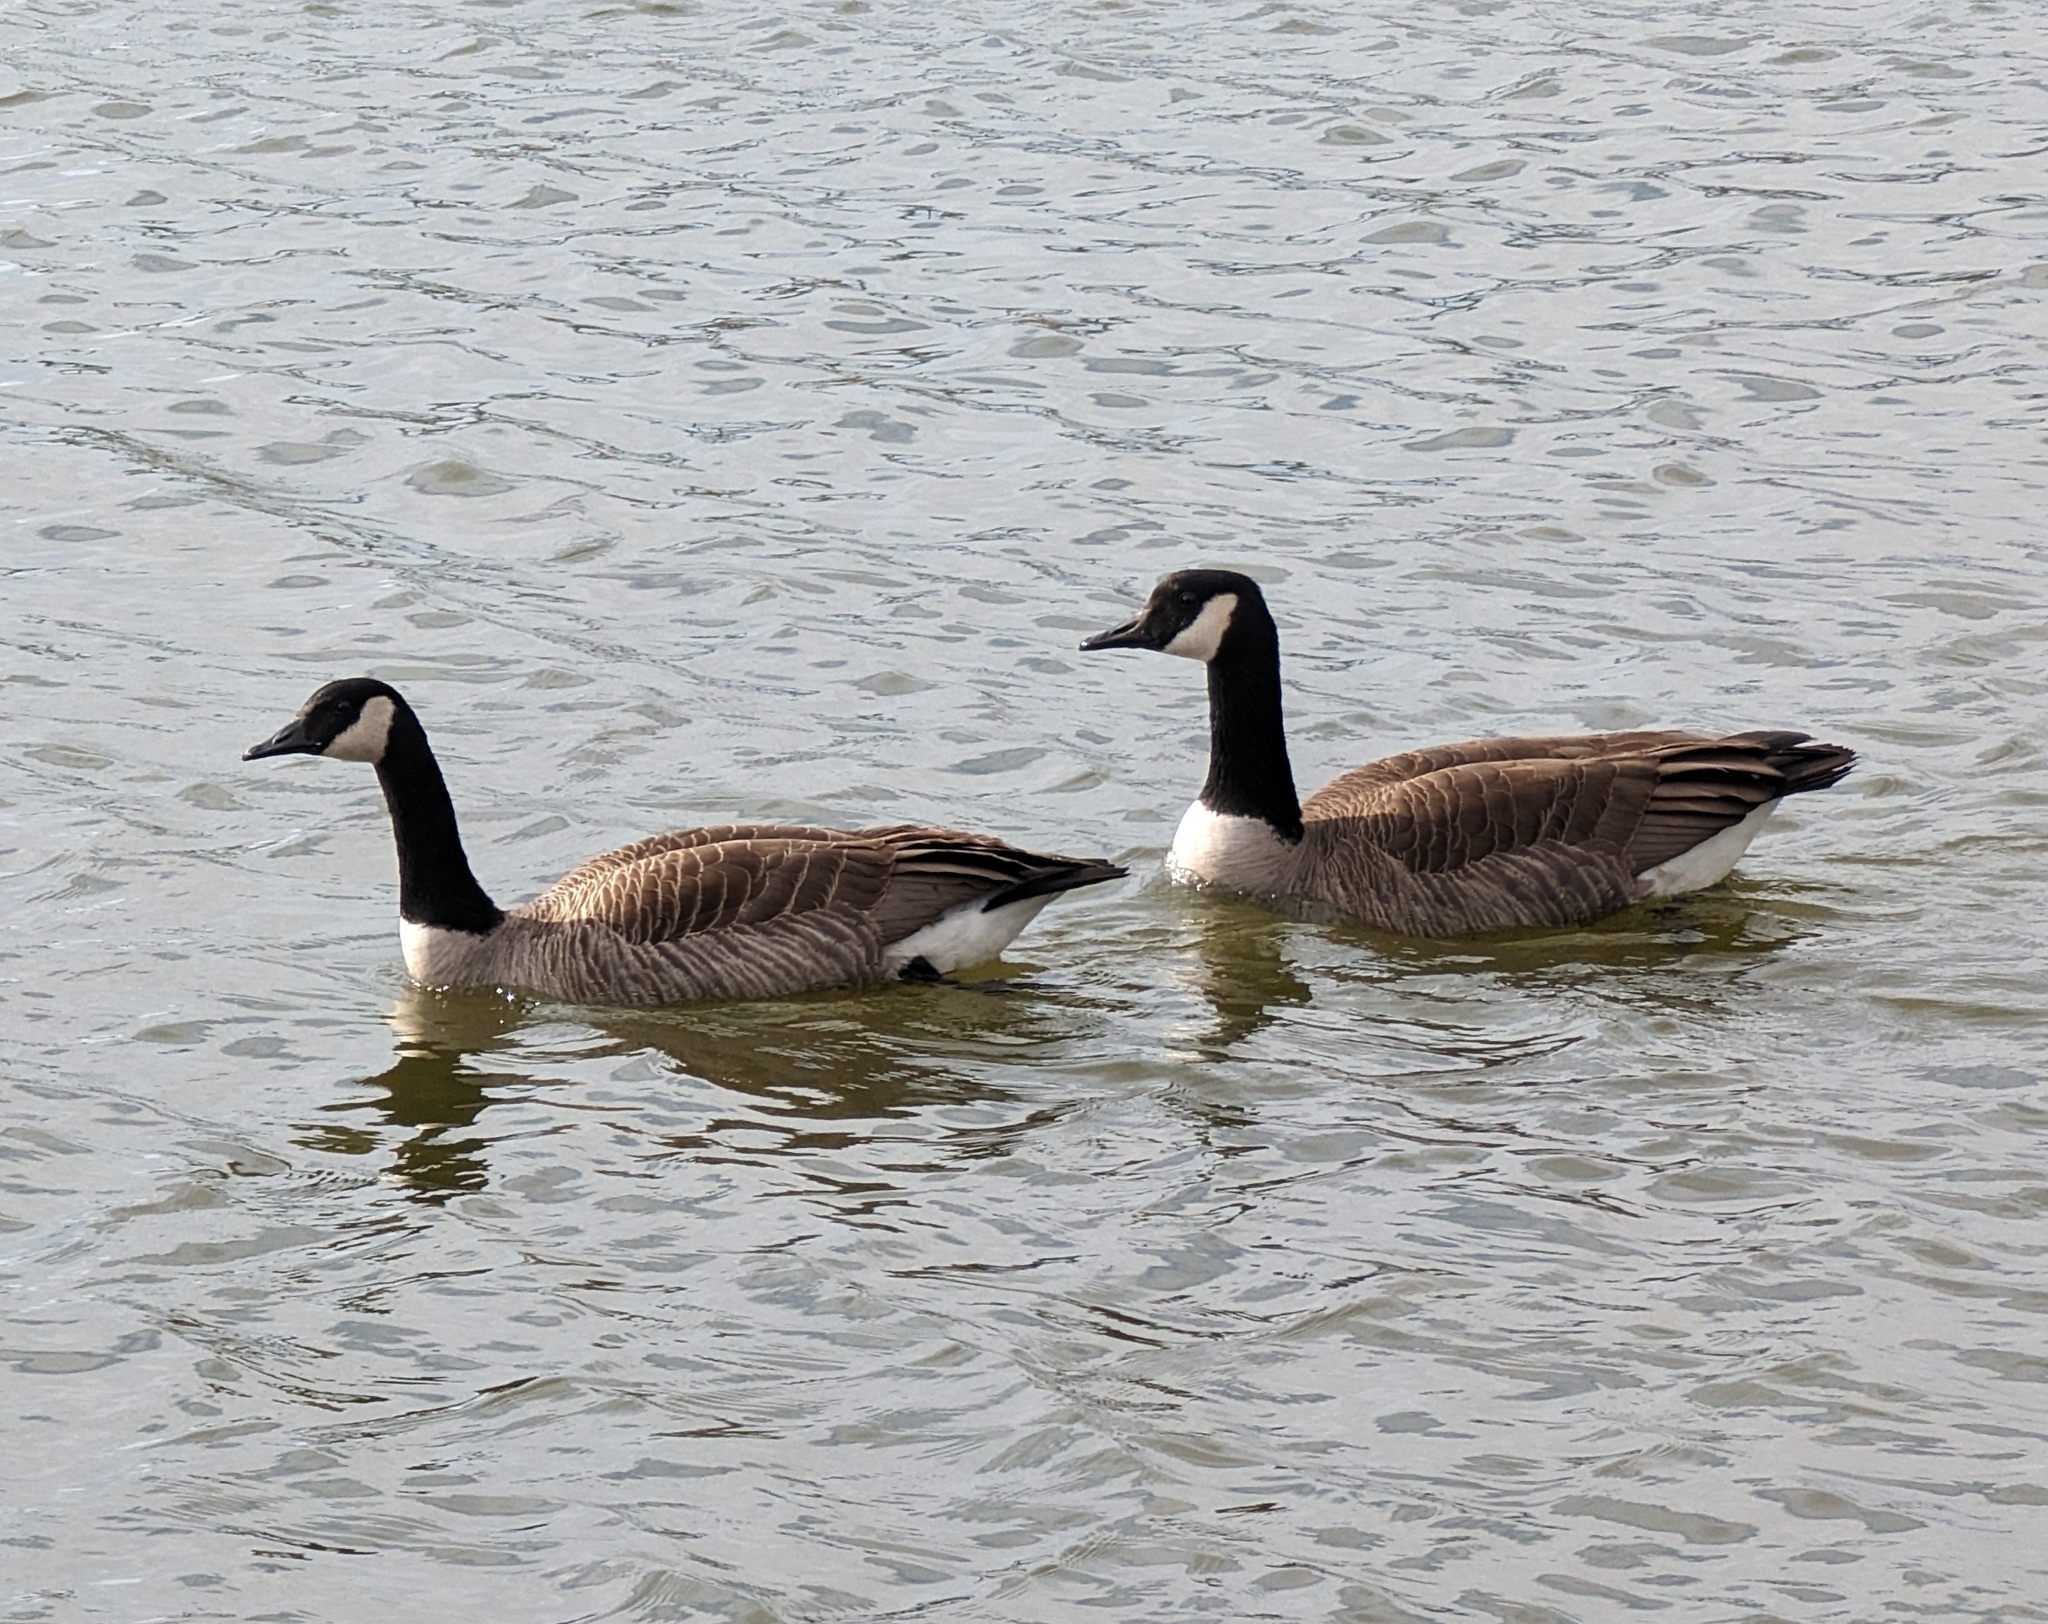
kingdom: Animalia
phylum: Chordata
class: Aves
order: Anseriformes
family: Anatidae
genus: Branta
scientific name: Branta canadensis
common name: Canada goose
